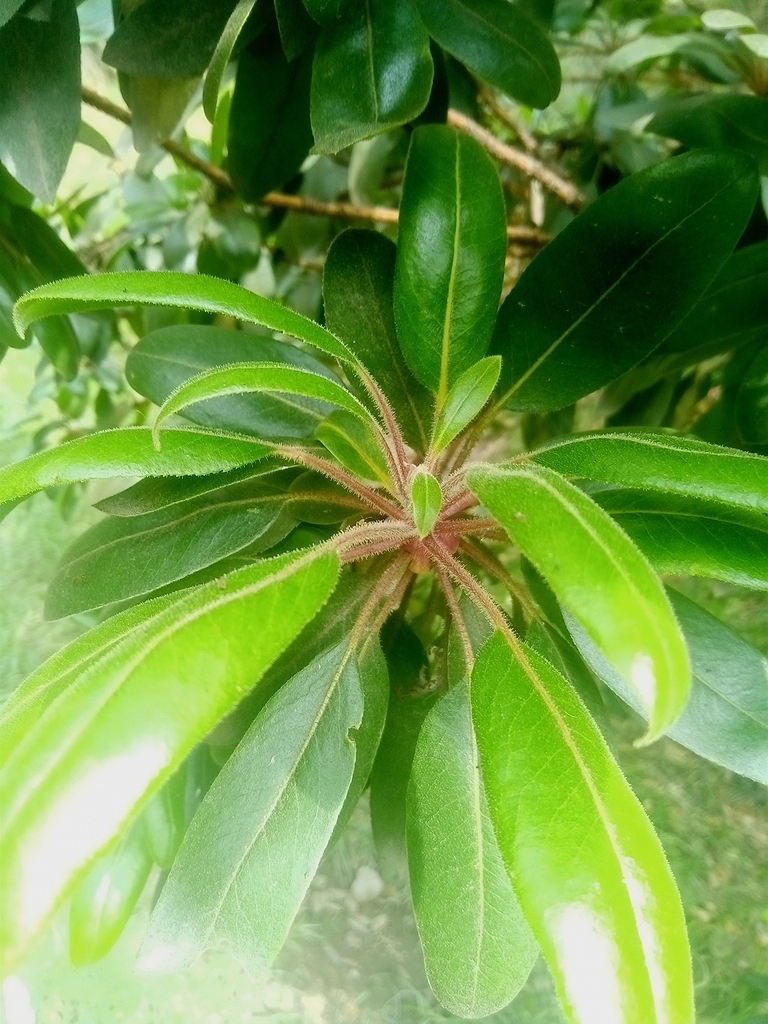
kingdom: Plantae
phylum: Tracheophyta
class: Magnoliopsida
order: Ericales
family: Ericaceae
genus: Arbutus
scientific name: Arbutus tessellata
